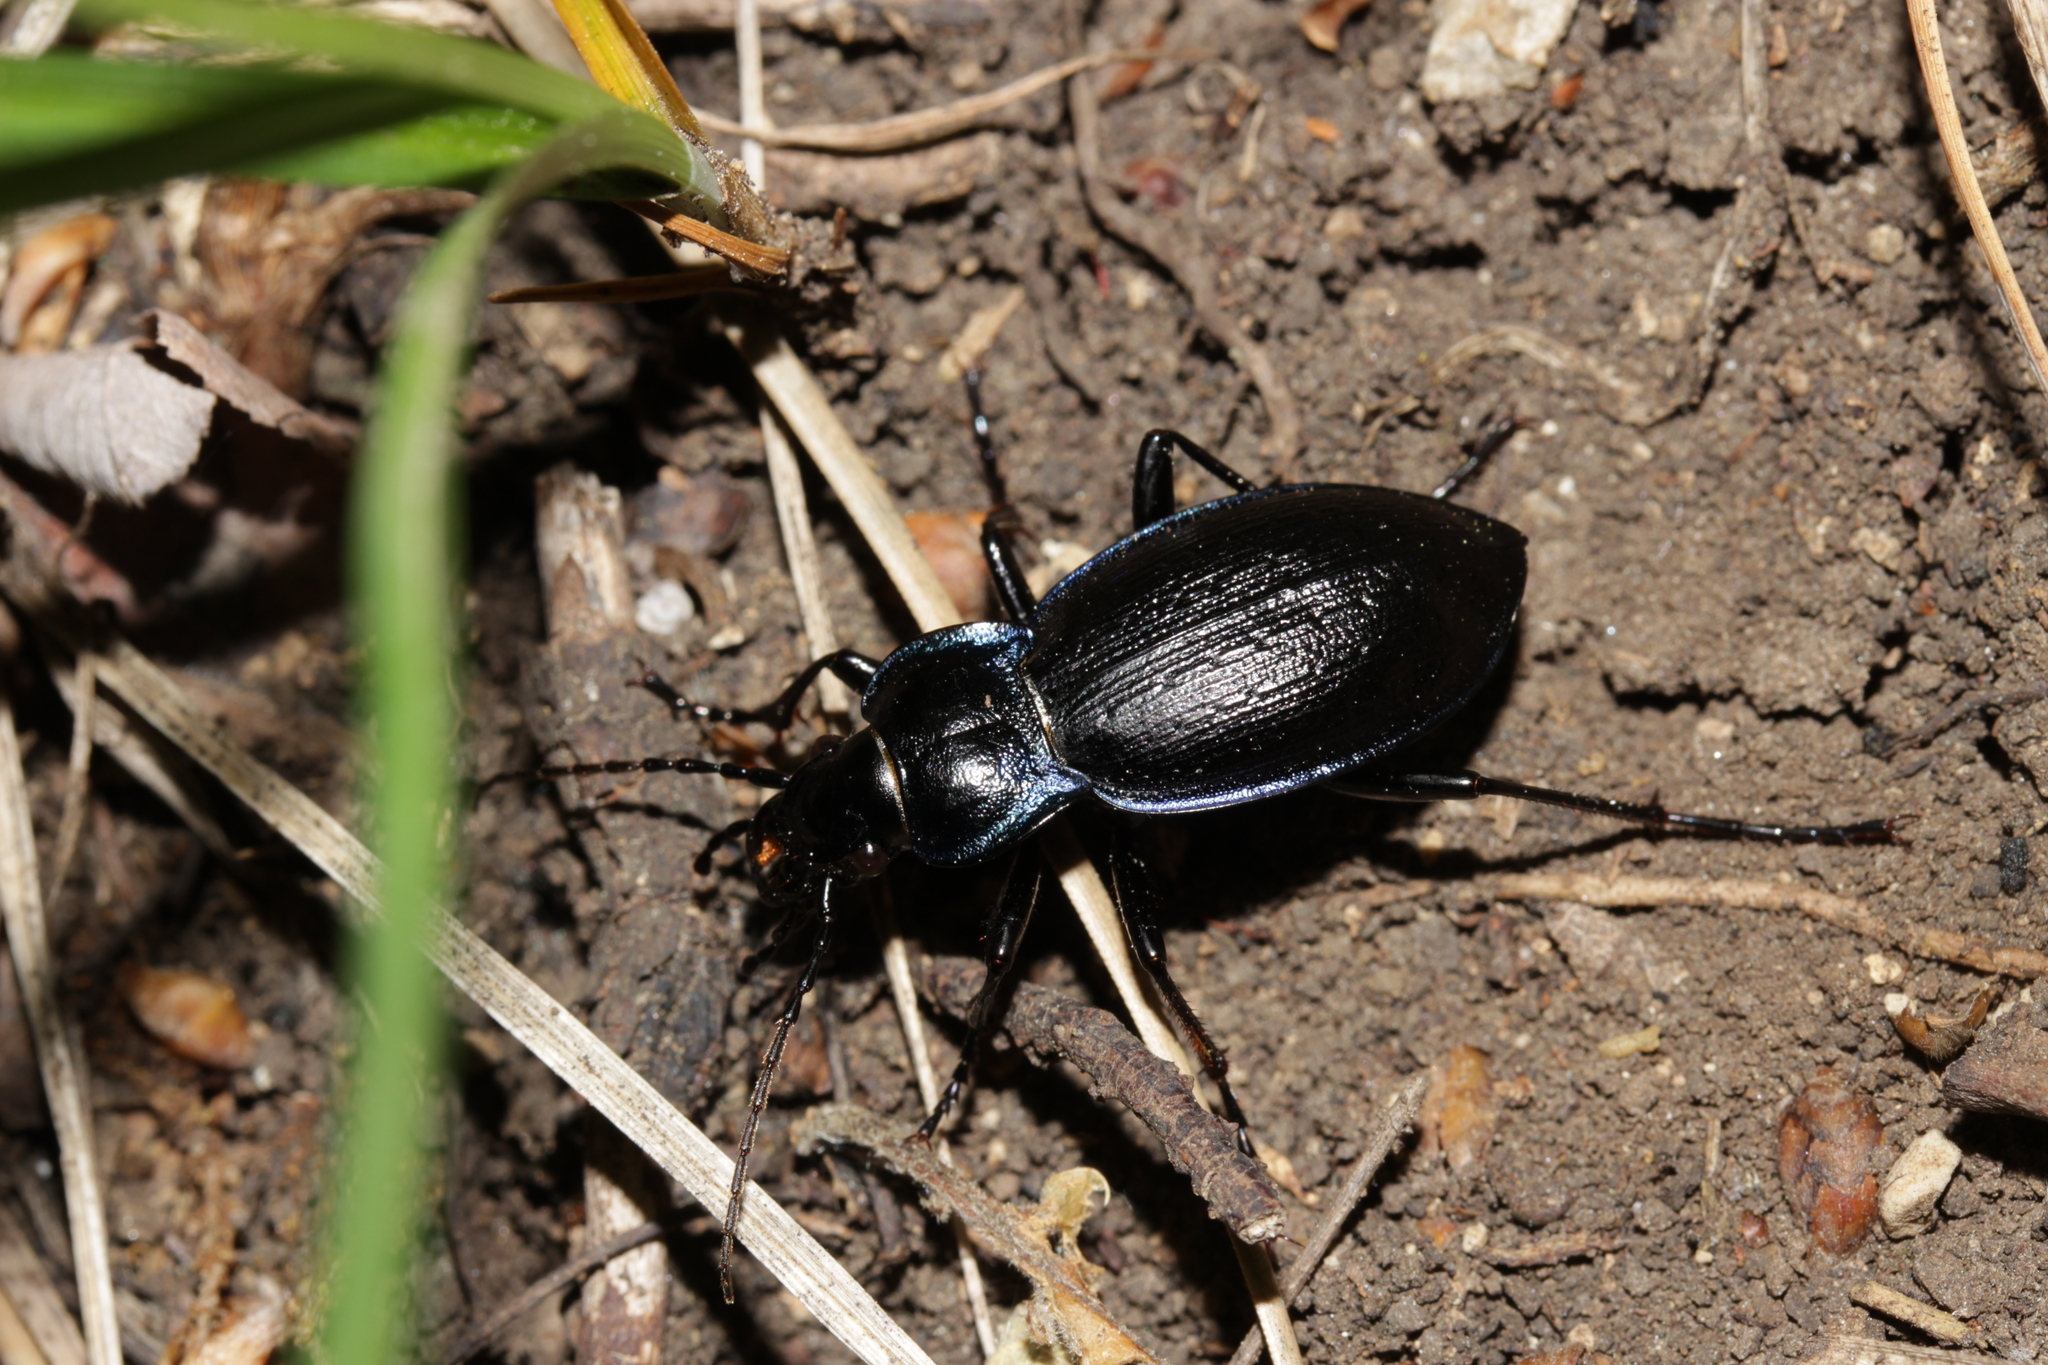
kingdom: Animalia
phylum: Arthropoda
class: Insecta
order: Coleoptera
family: Carabidae
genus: Carabus
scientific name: Carabus problematicus
